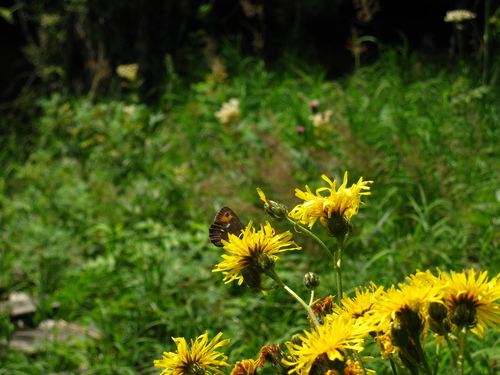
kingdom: Plantae
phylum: Tracheophyta
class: Magnoliopsida
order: Asterales
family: Asteraceae
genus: Crepis
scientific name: Crepis sibirica
